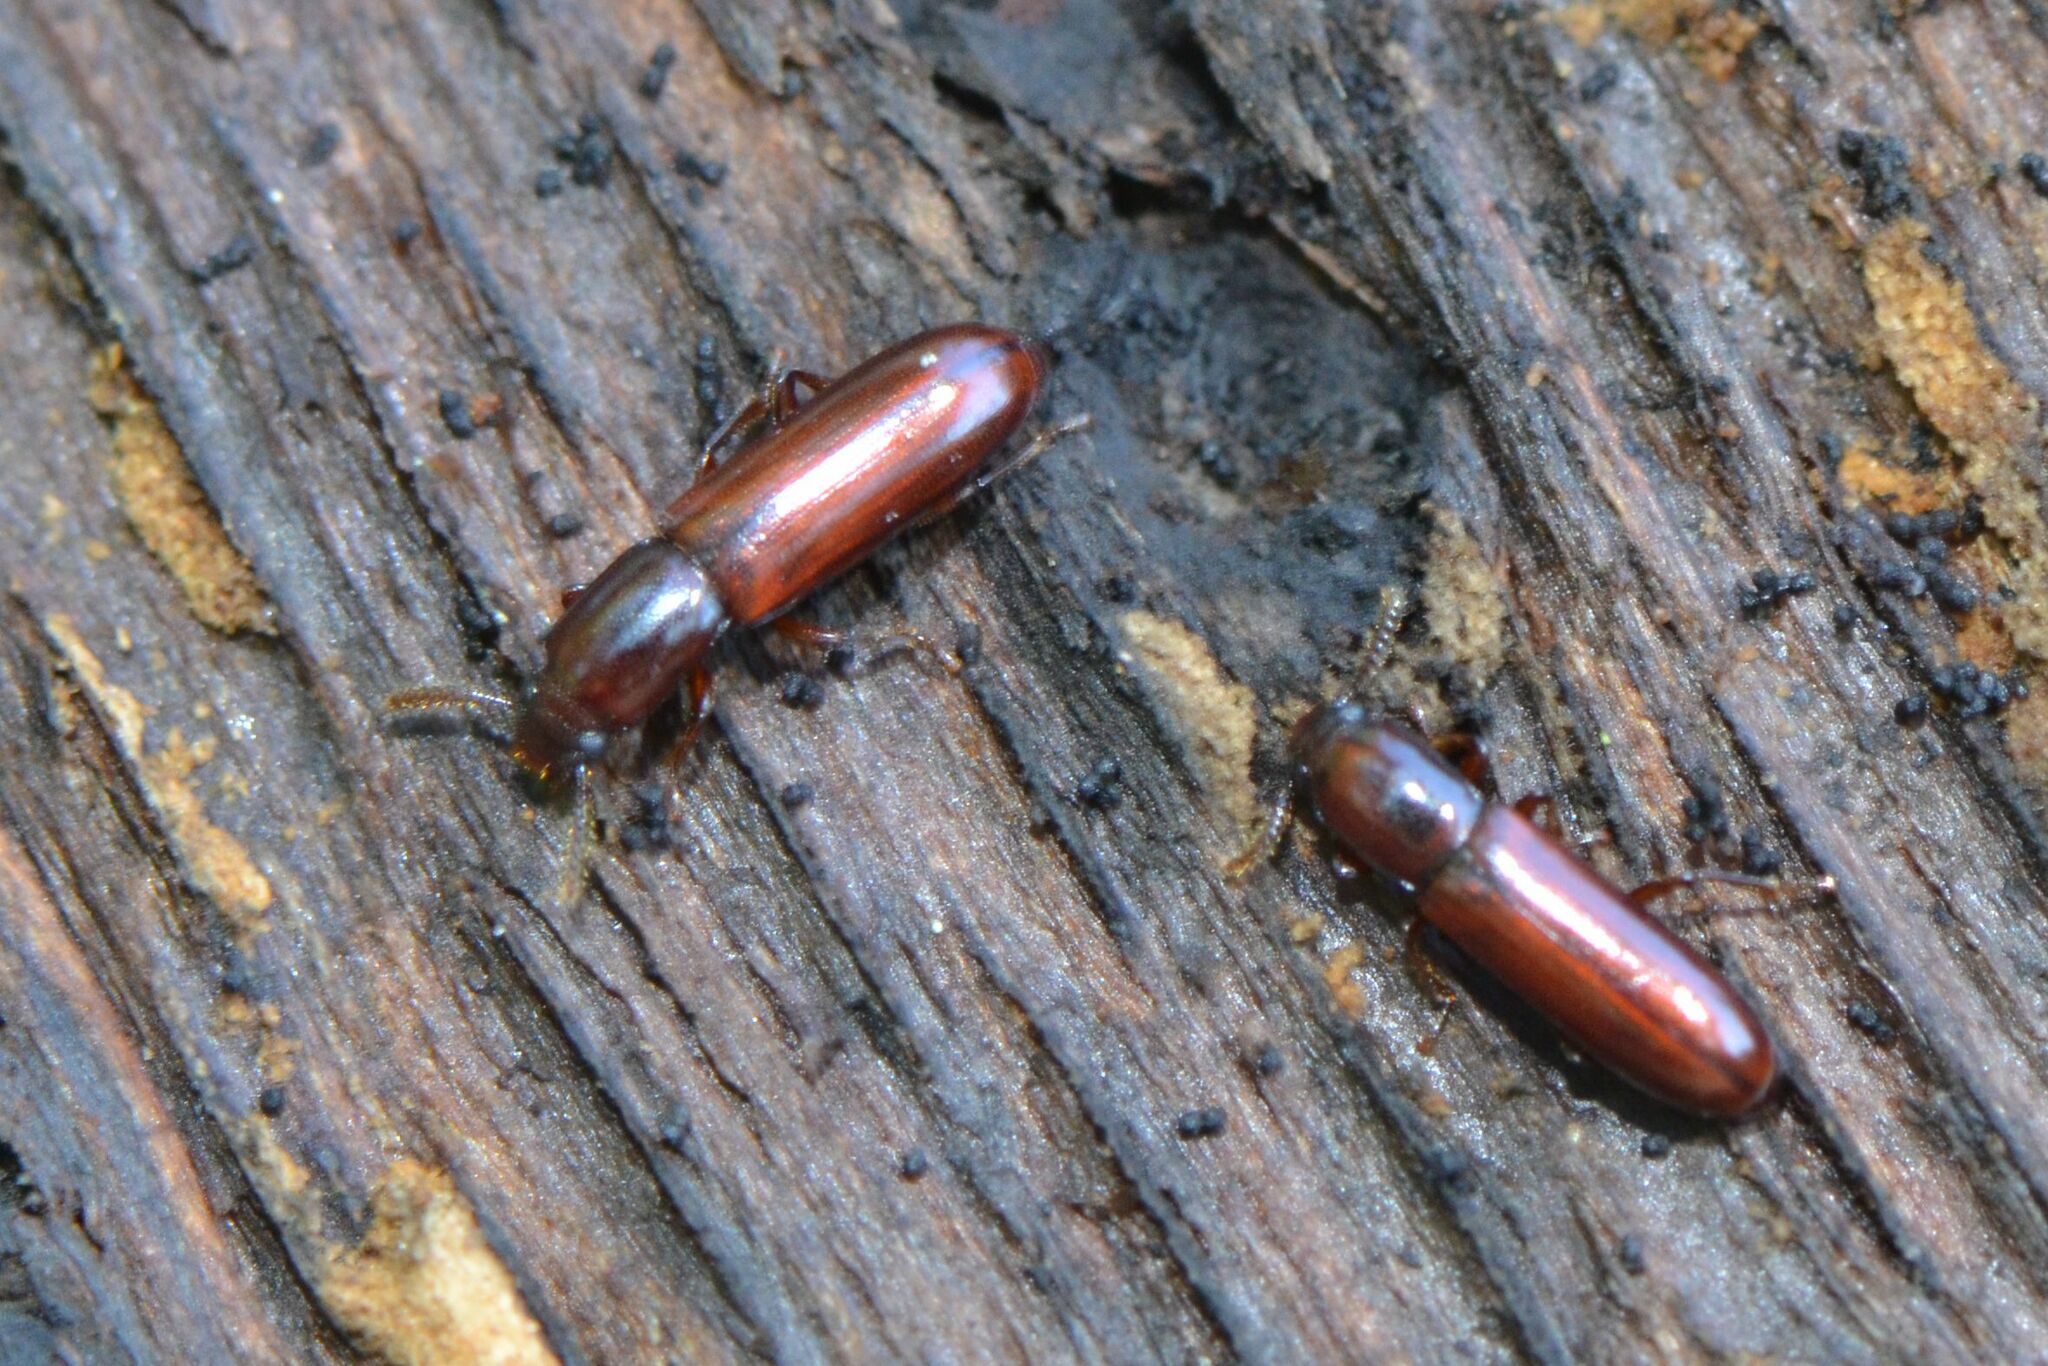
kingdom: Animalia
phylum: Arthropoda
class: Insecta
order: Coleoptera
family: Tenebrionidae
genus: Corticeus
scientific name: Corticeus unicolor
